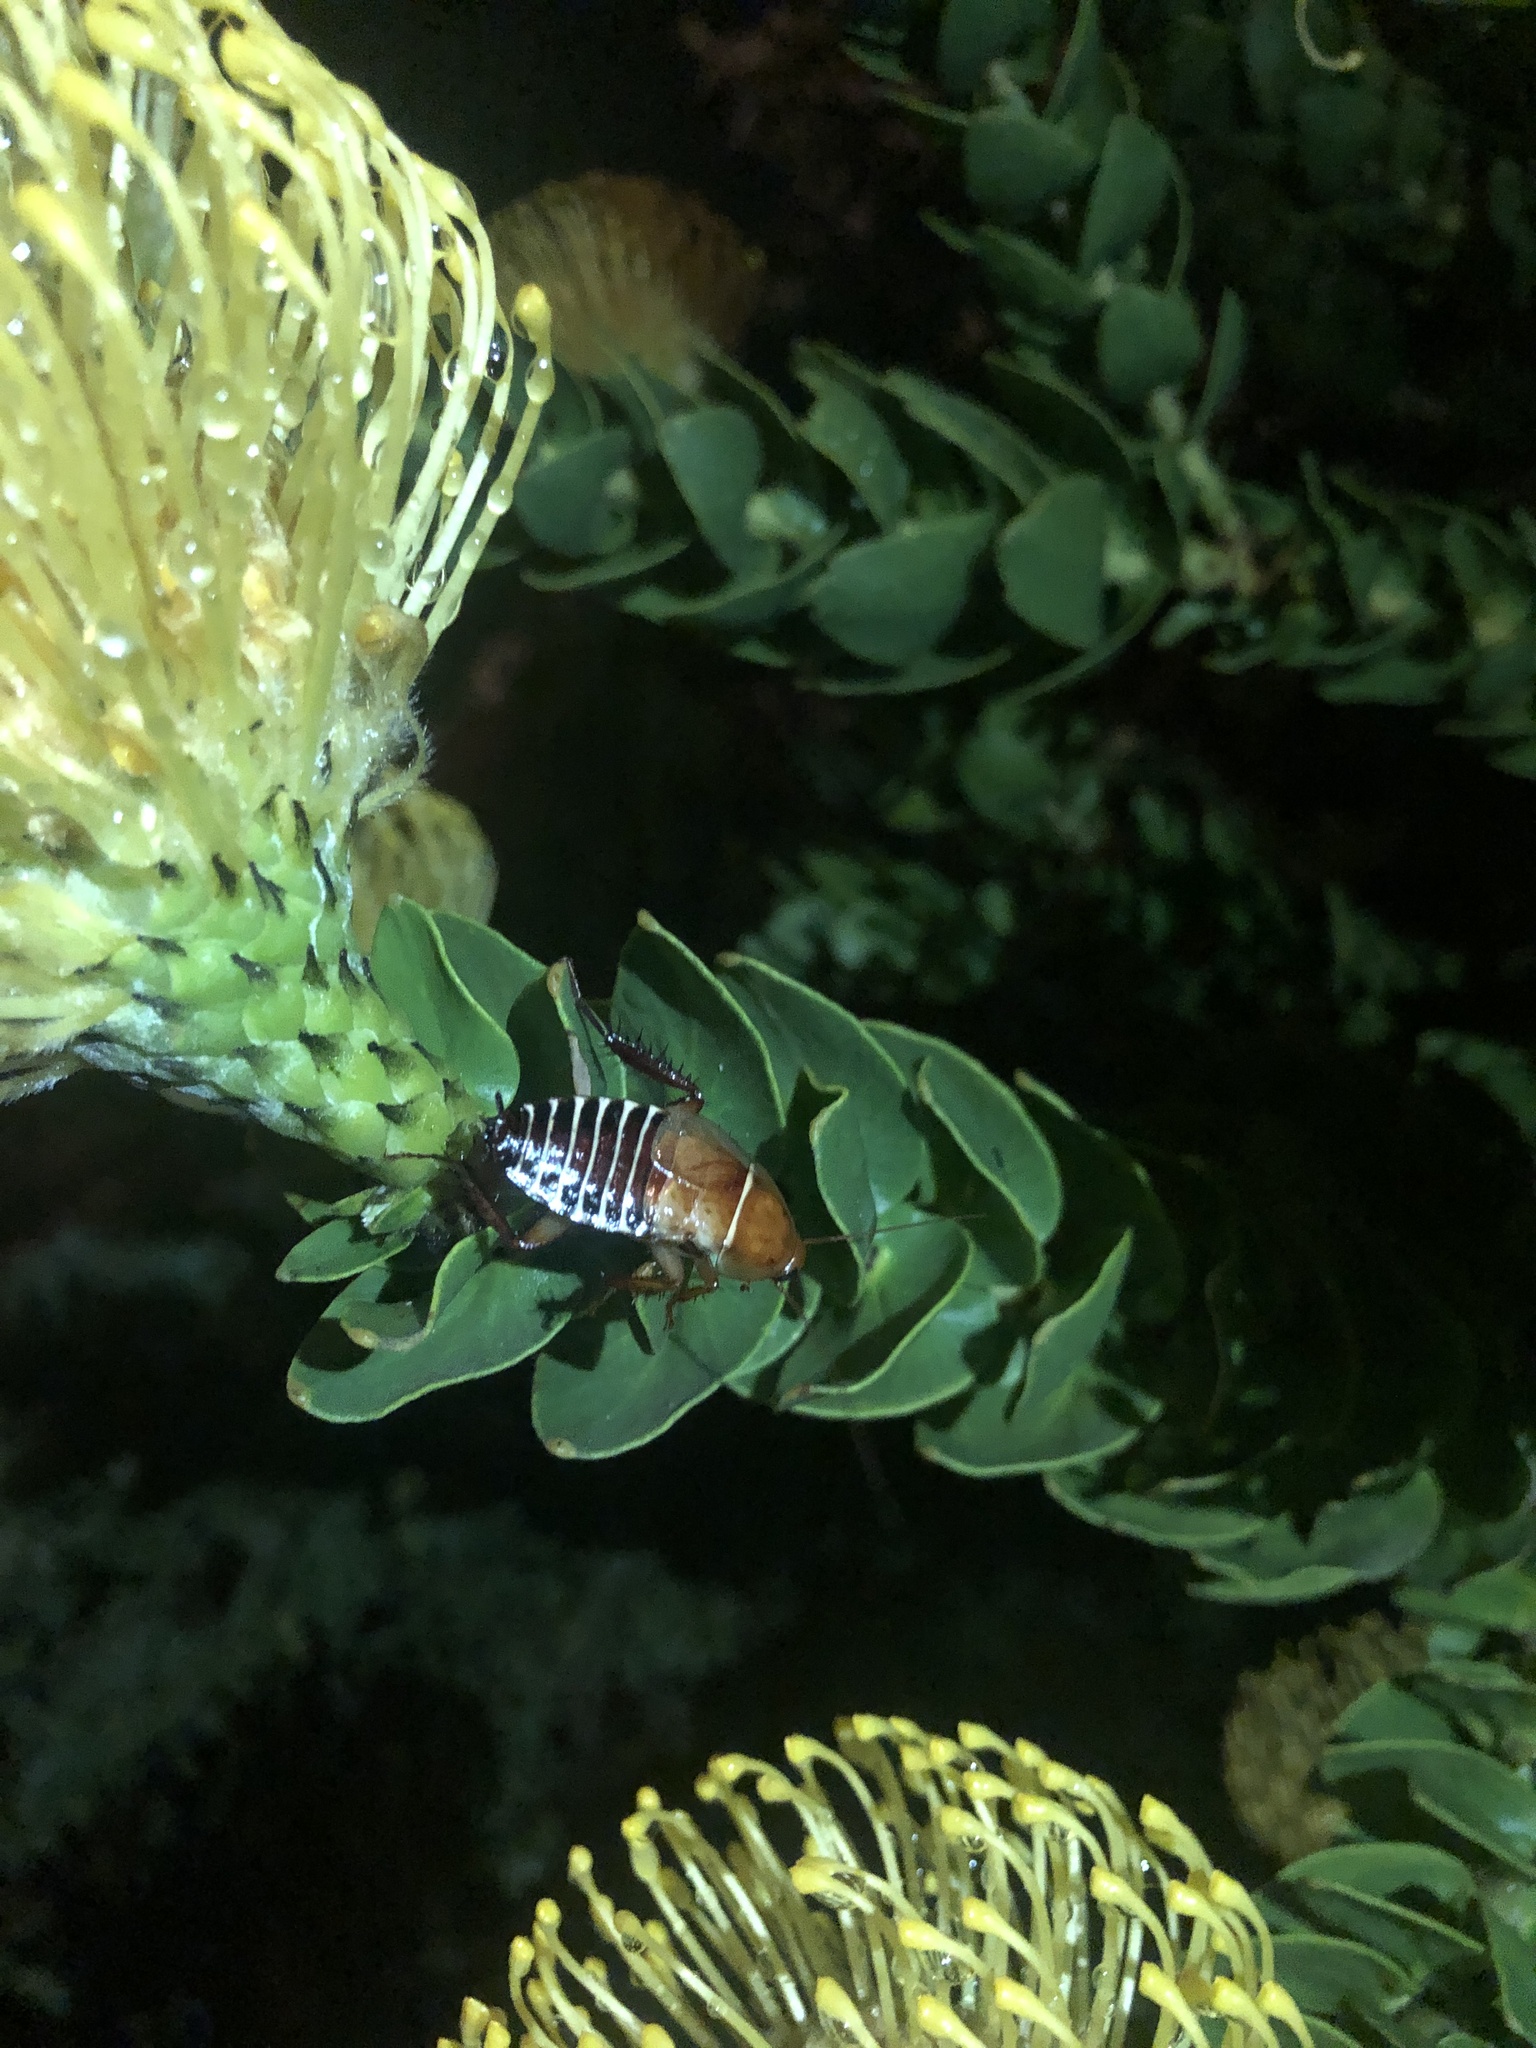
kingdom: Animalia
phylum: Arthropoda
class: Insecta
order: Blattodea
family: Ectobiidae
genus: Temnopteryx
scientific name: Temnopteryx phalerata
